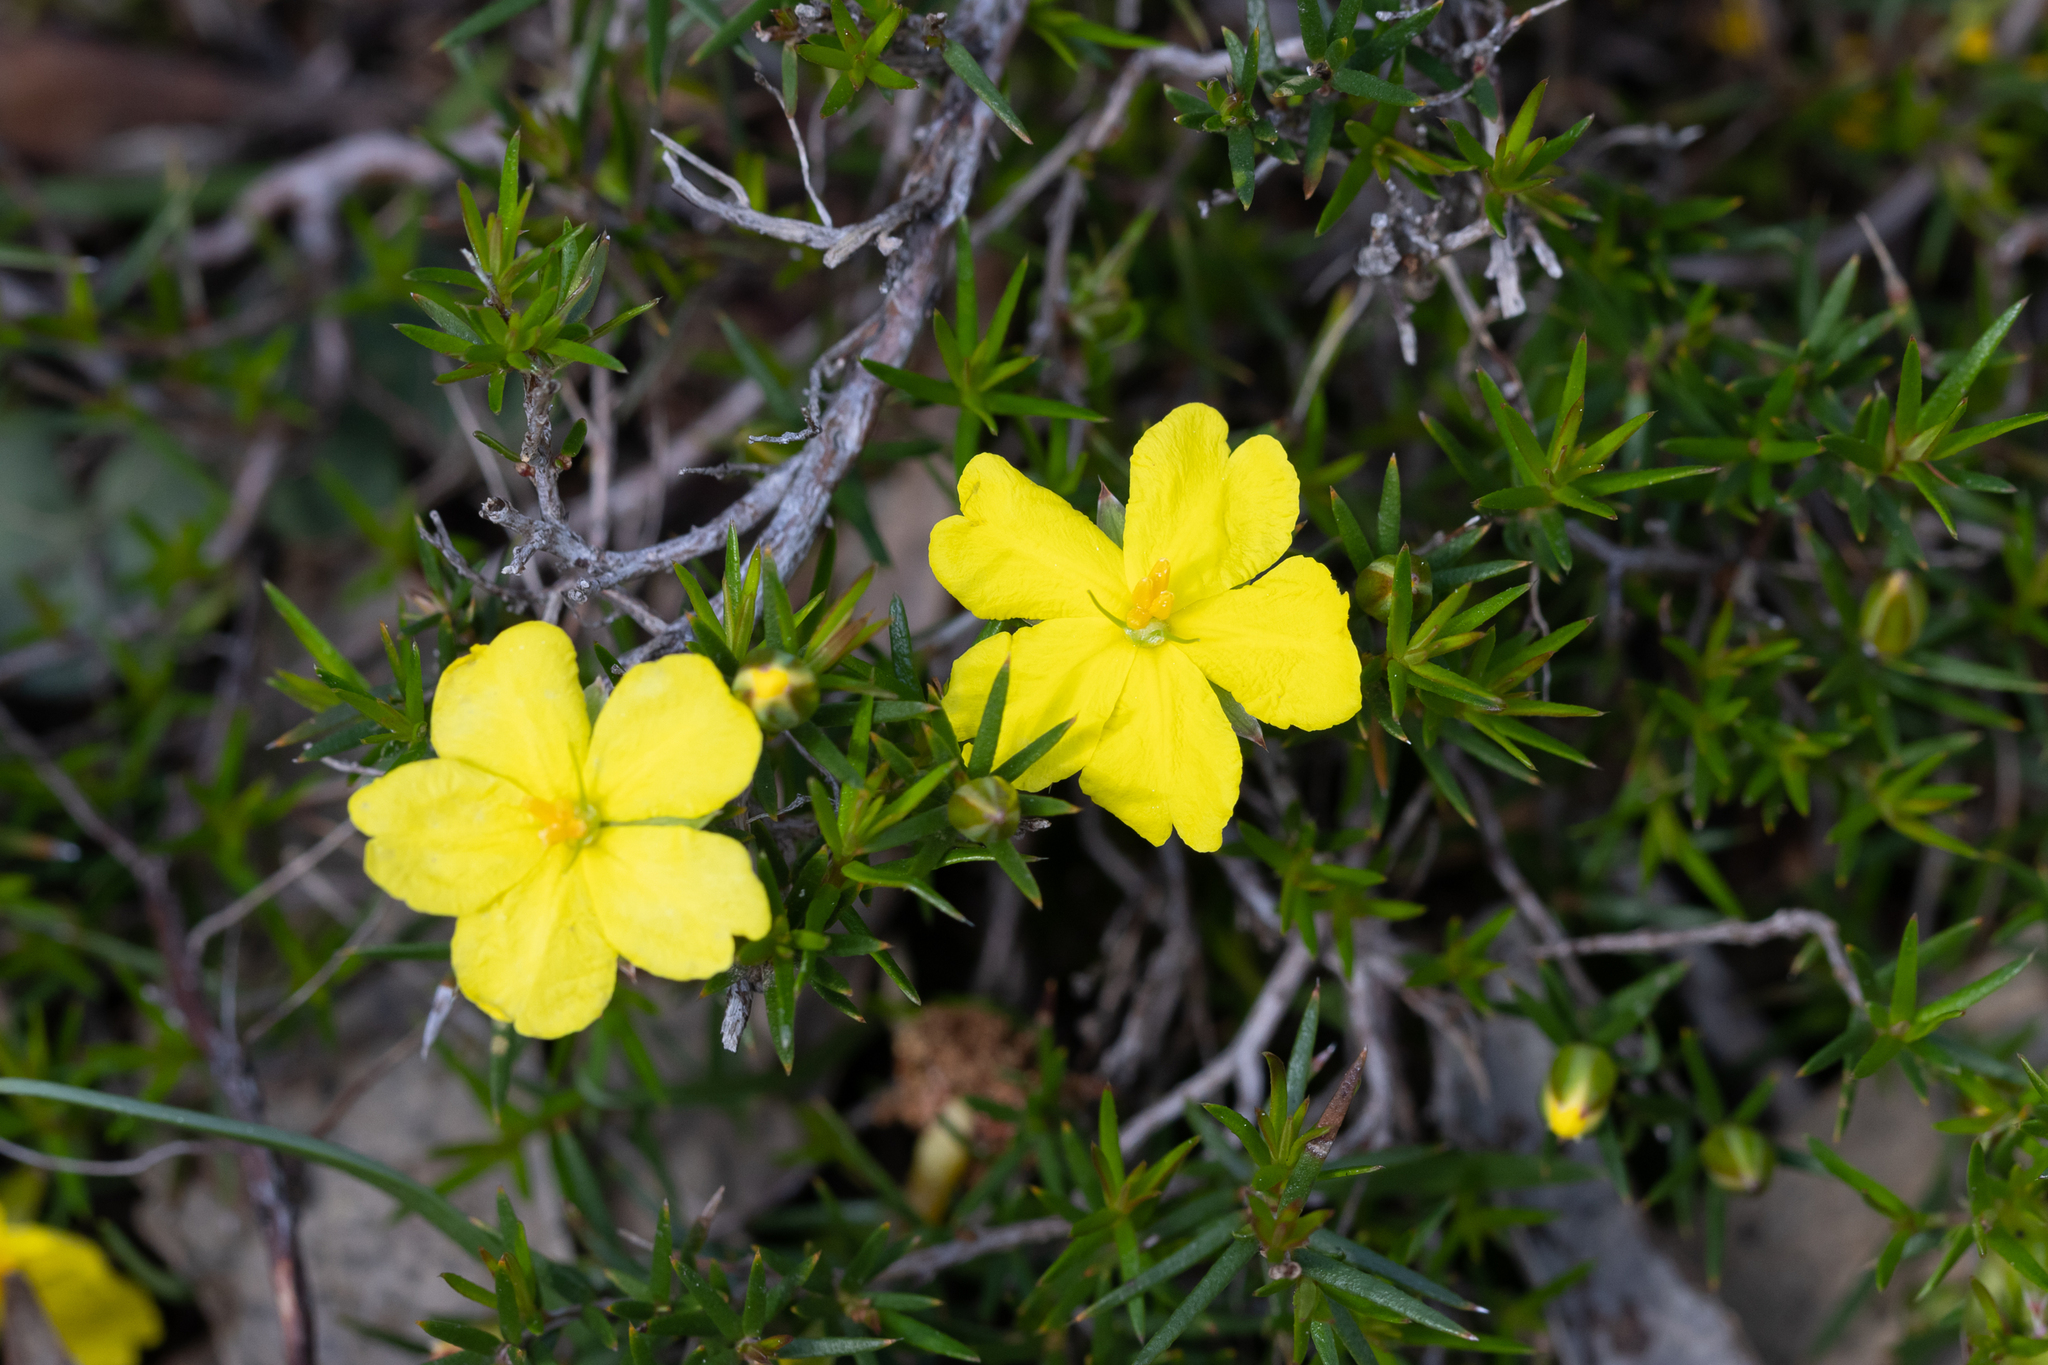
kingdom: Plantae
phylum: Tracheophyta
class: Magnoliopsida
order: Dilleniales
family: Dilleniaceae
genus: Hibbertia
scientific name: Hibbertia exutiacies
